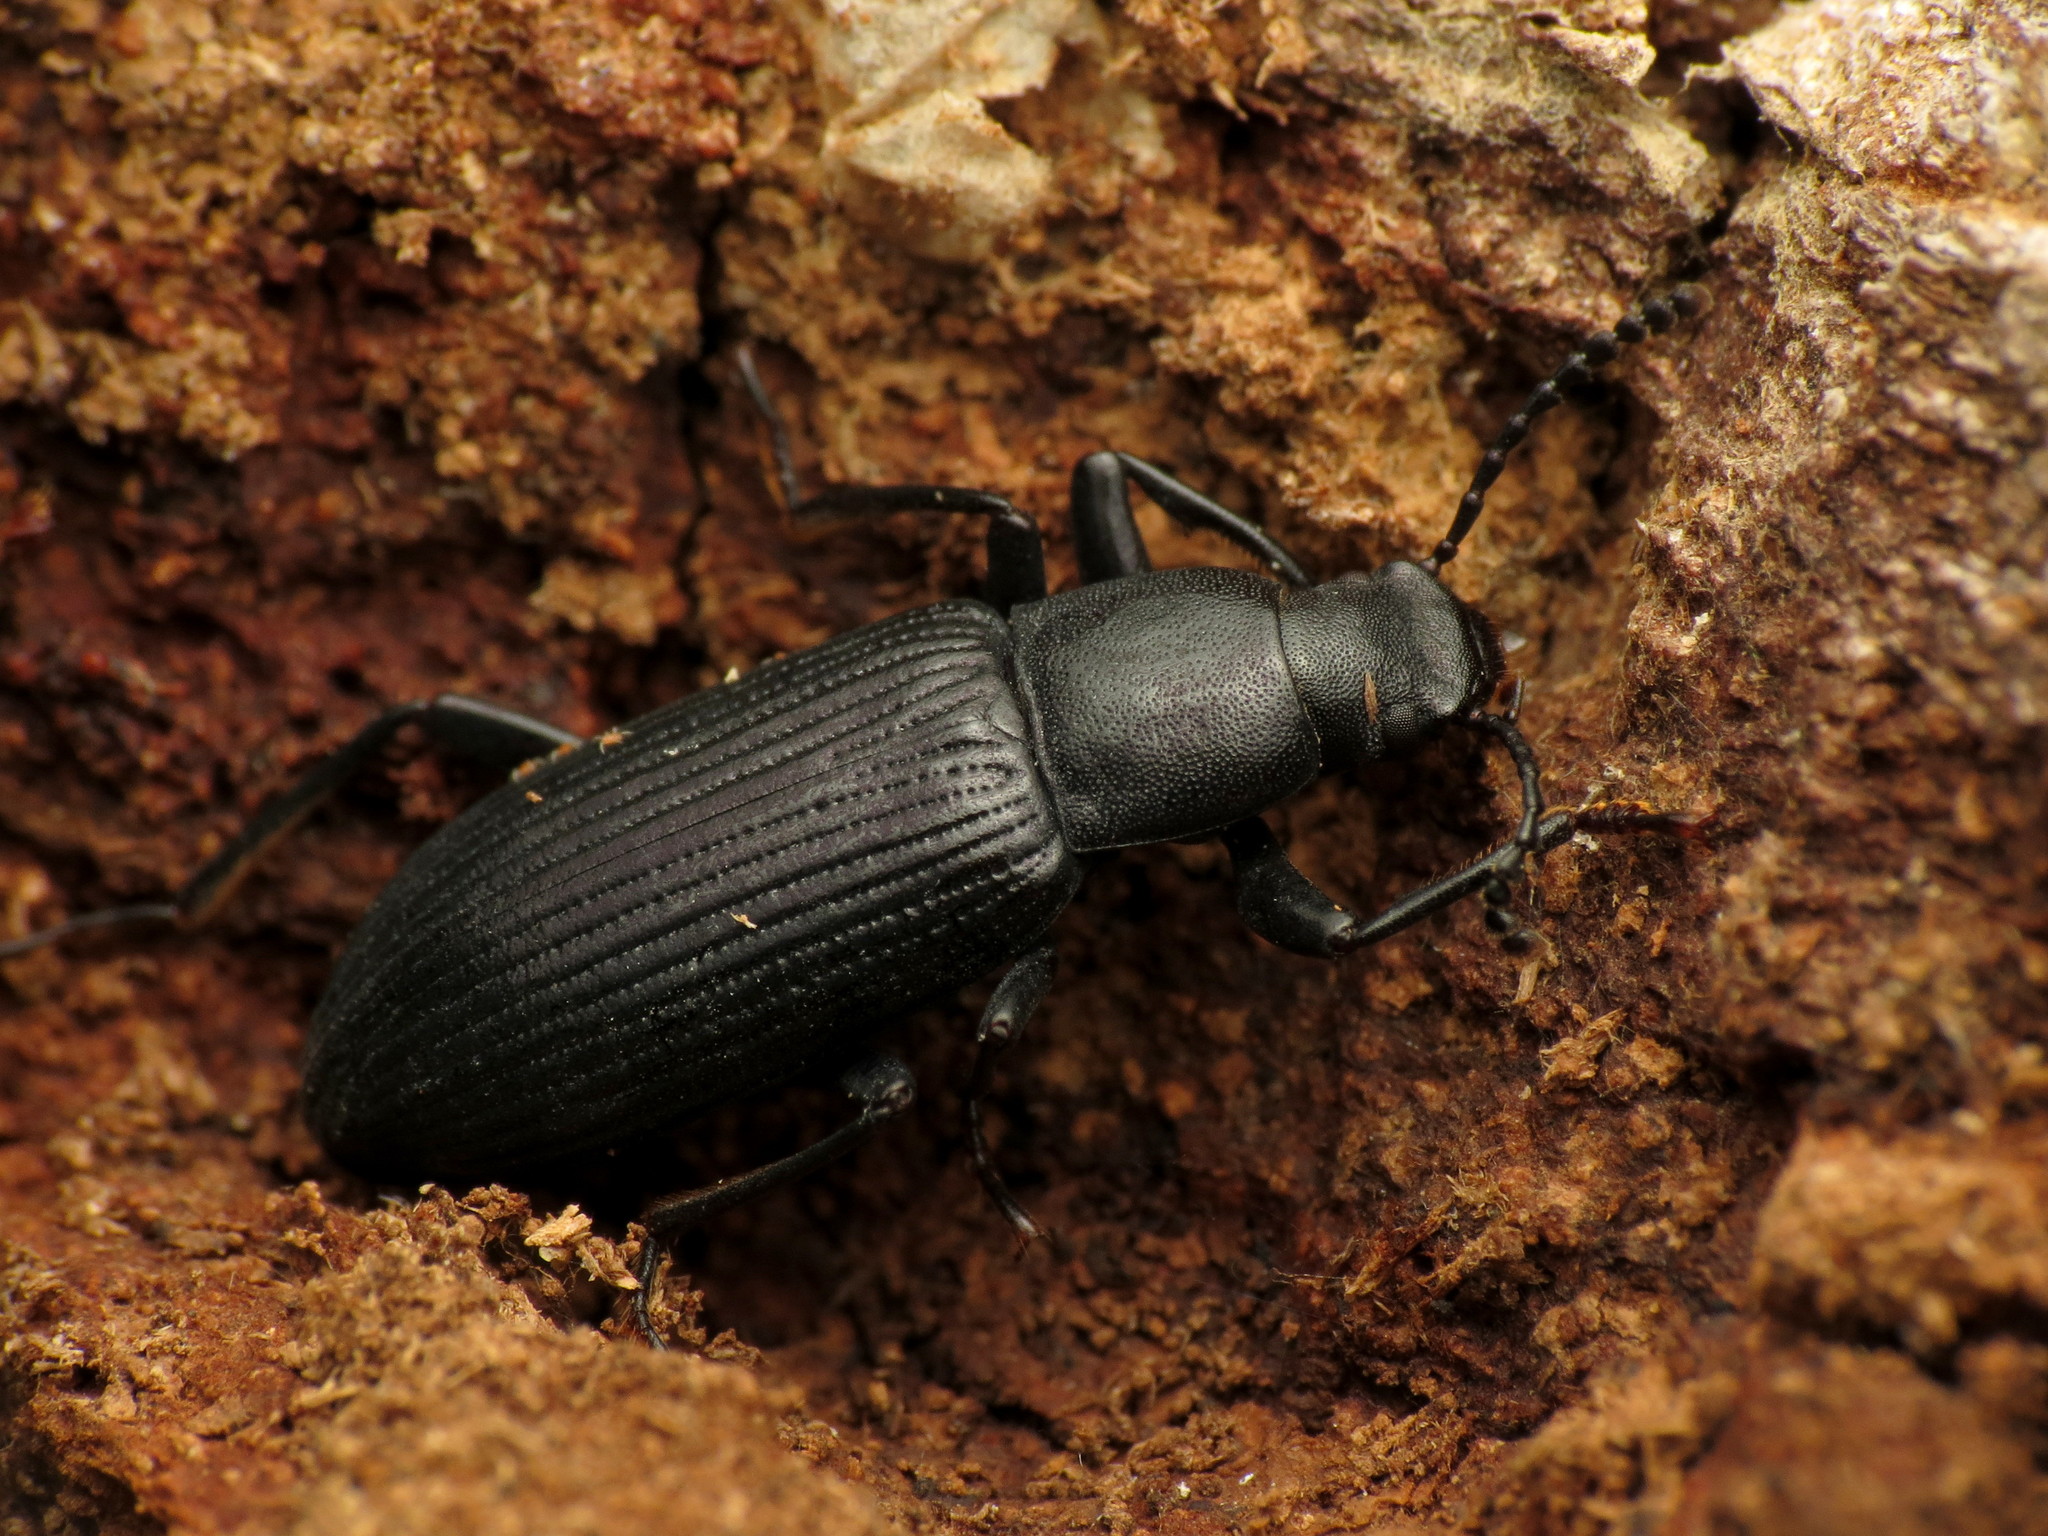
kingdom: Animalia
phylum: Arthropoda
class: Insecta
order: Coleoptera
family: Tenebrionidae
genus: Xylopinus
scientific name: Xylopinus saperdoides
